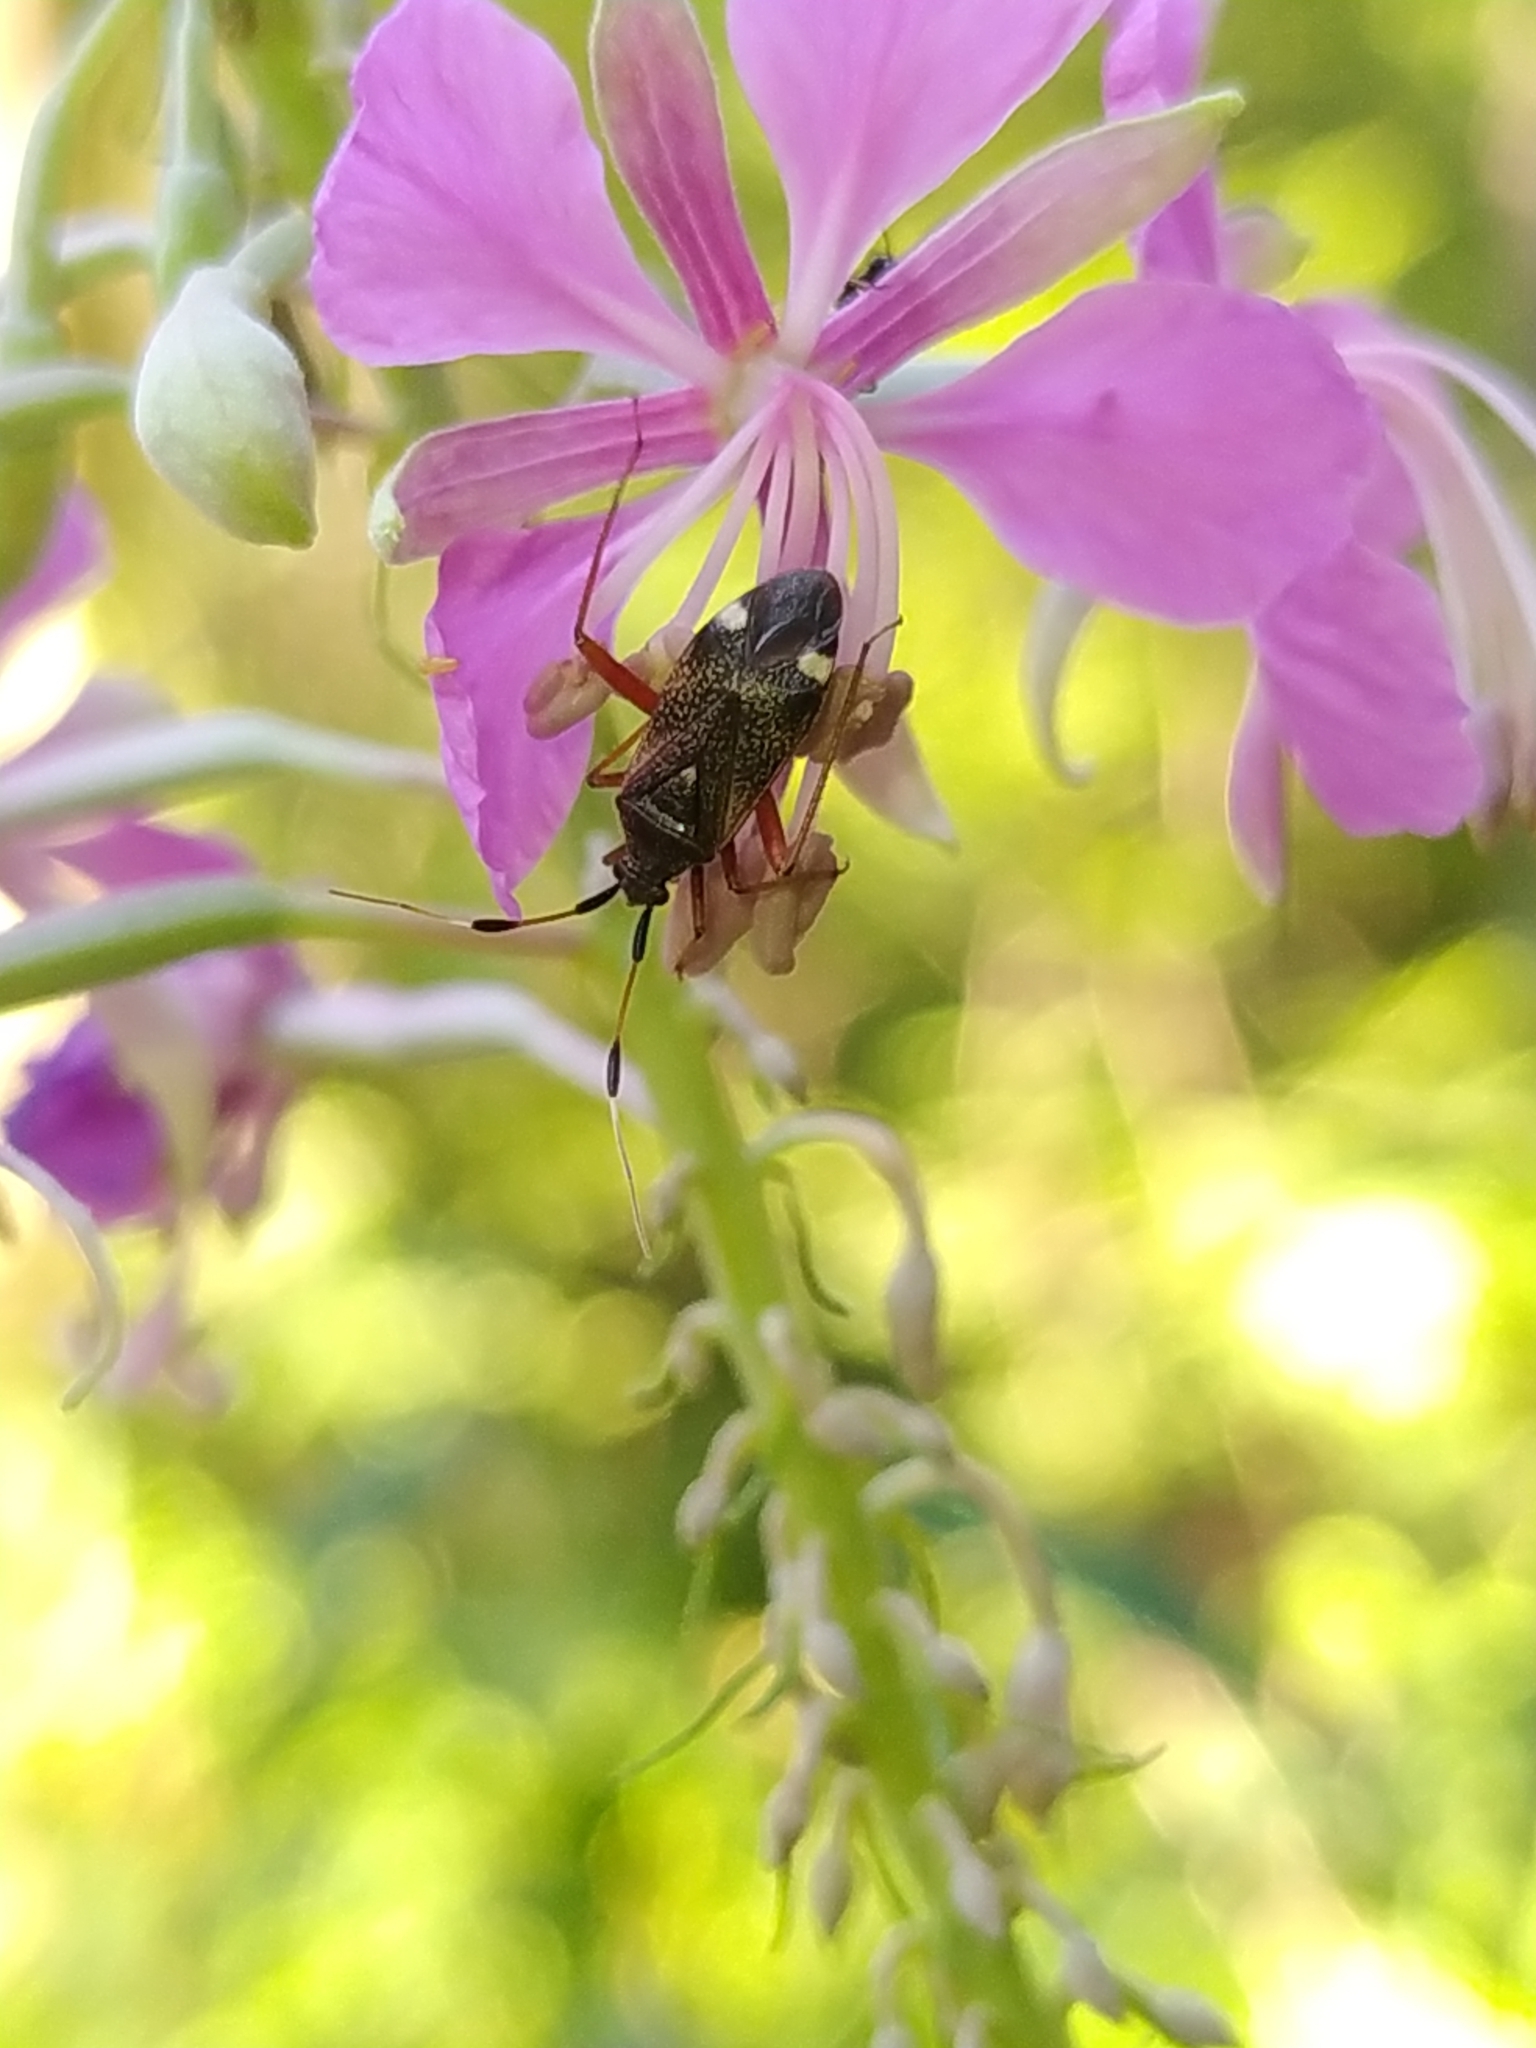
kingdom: Animalia
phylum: Arthropoda
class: Insecta
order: Hemiptera
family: Miridae
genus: Closterotomus
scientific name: Closterotomus biclavatus
